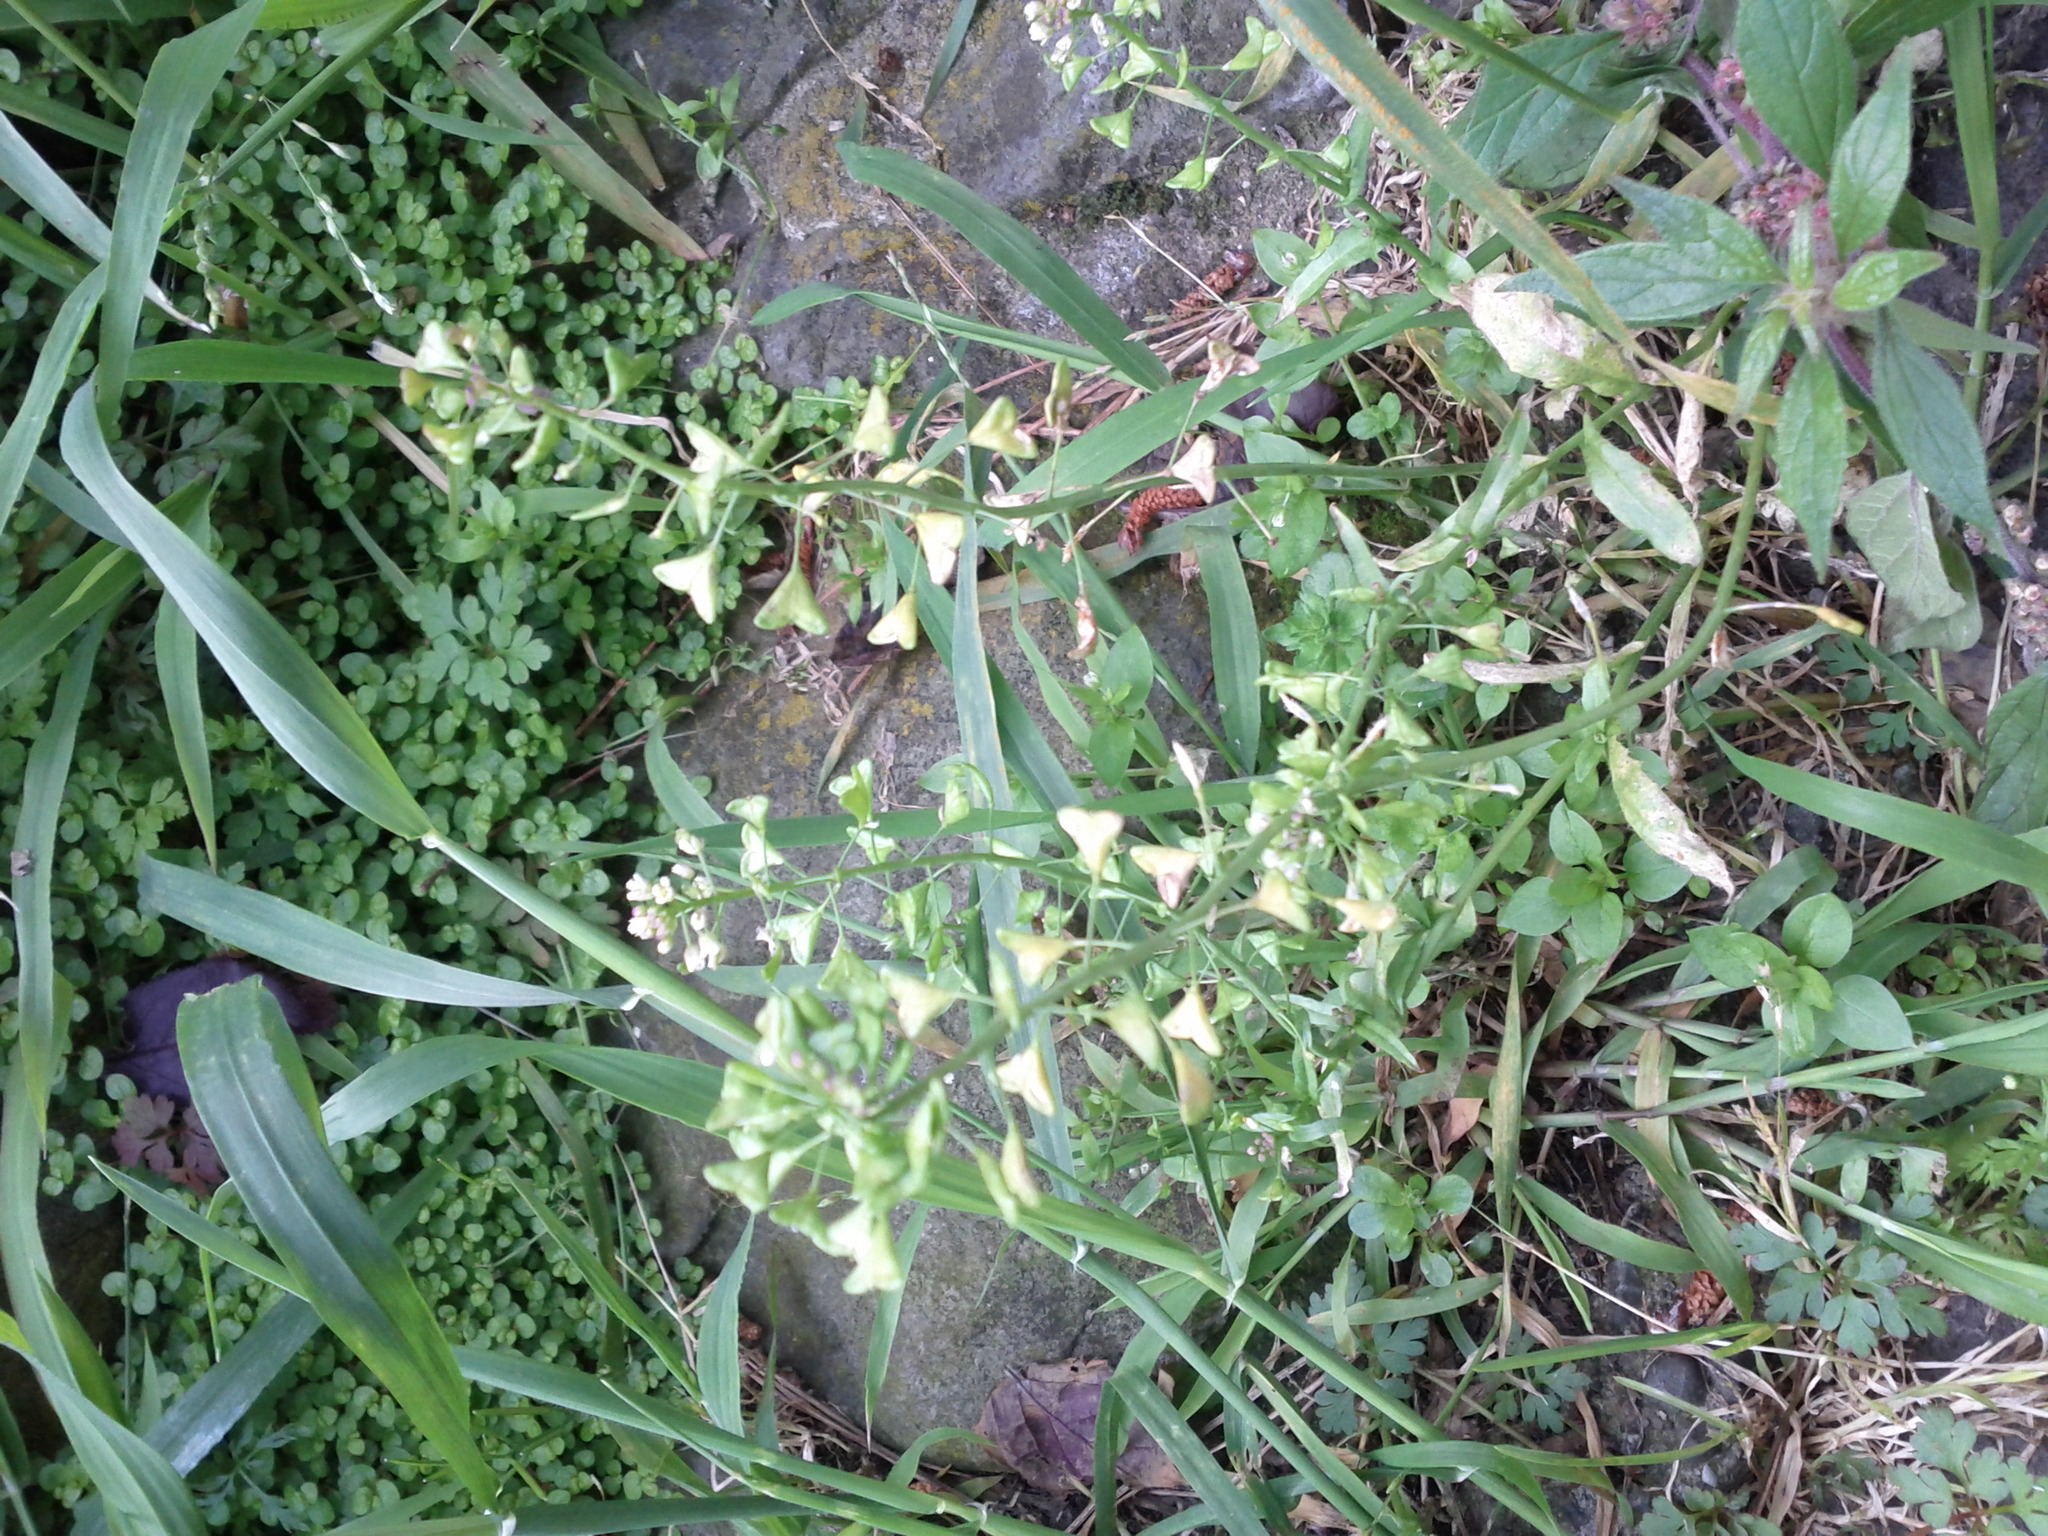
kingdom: Plantae
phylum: Tracheophyta
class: Magnoliopsida
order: Brassicales
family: Brassicaceae
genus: Capsella
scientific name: Capsella bursa-pastoris
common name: Shepherd's purse
